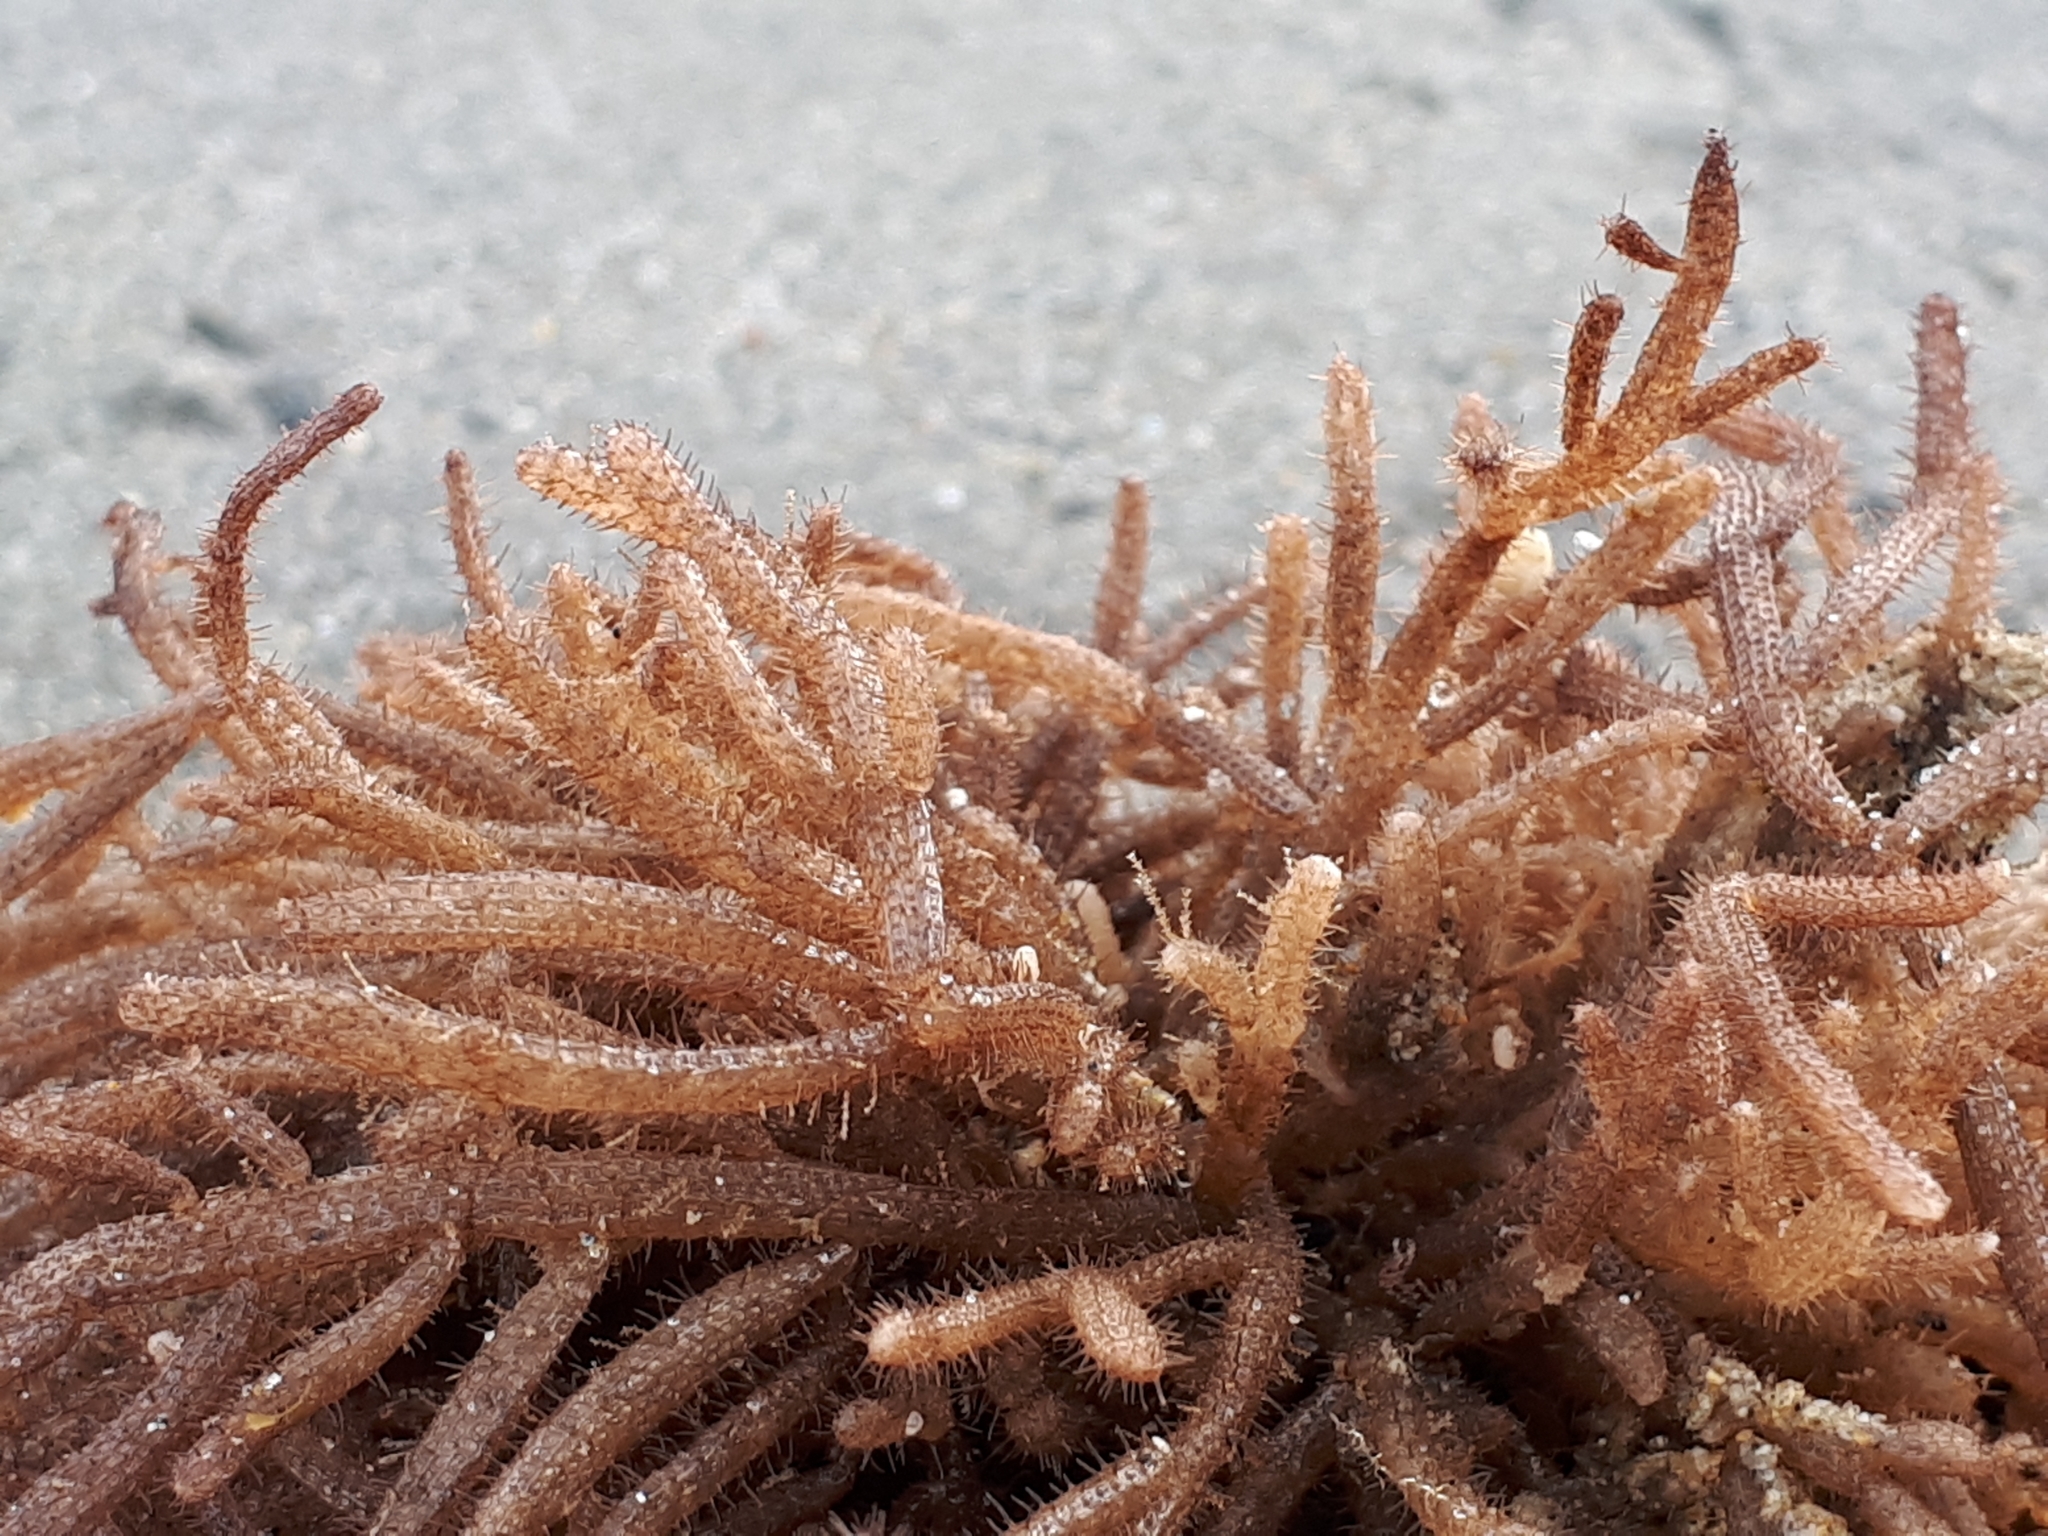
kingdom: Animalia
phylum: Bryozoa
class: Gymnolaemata
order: Ctenostomatida
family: Flustrellidridae
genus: Elzerina
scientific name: Elzerina binderi
